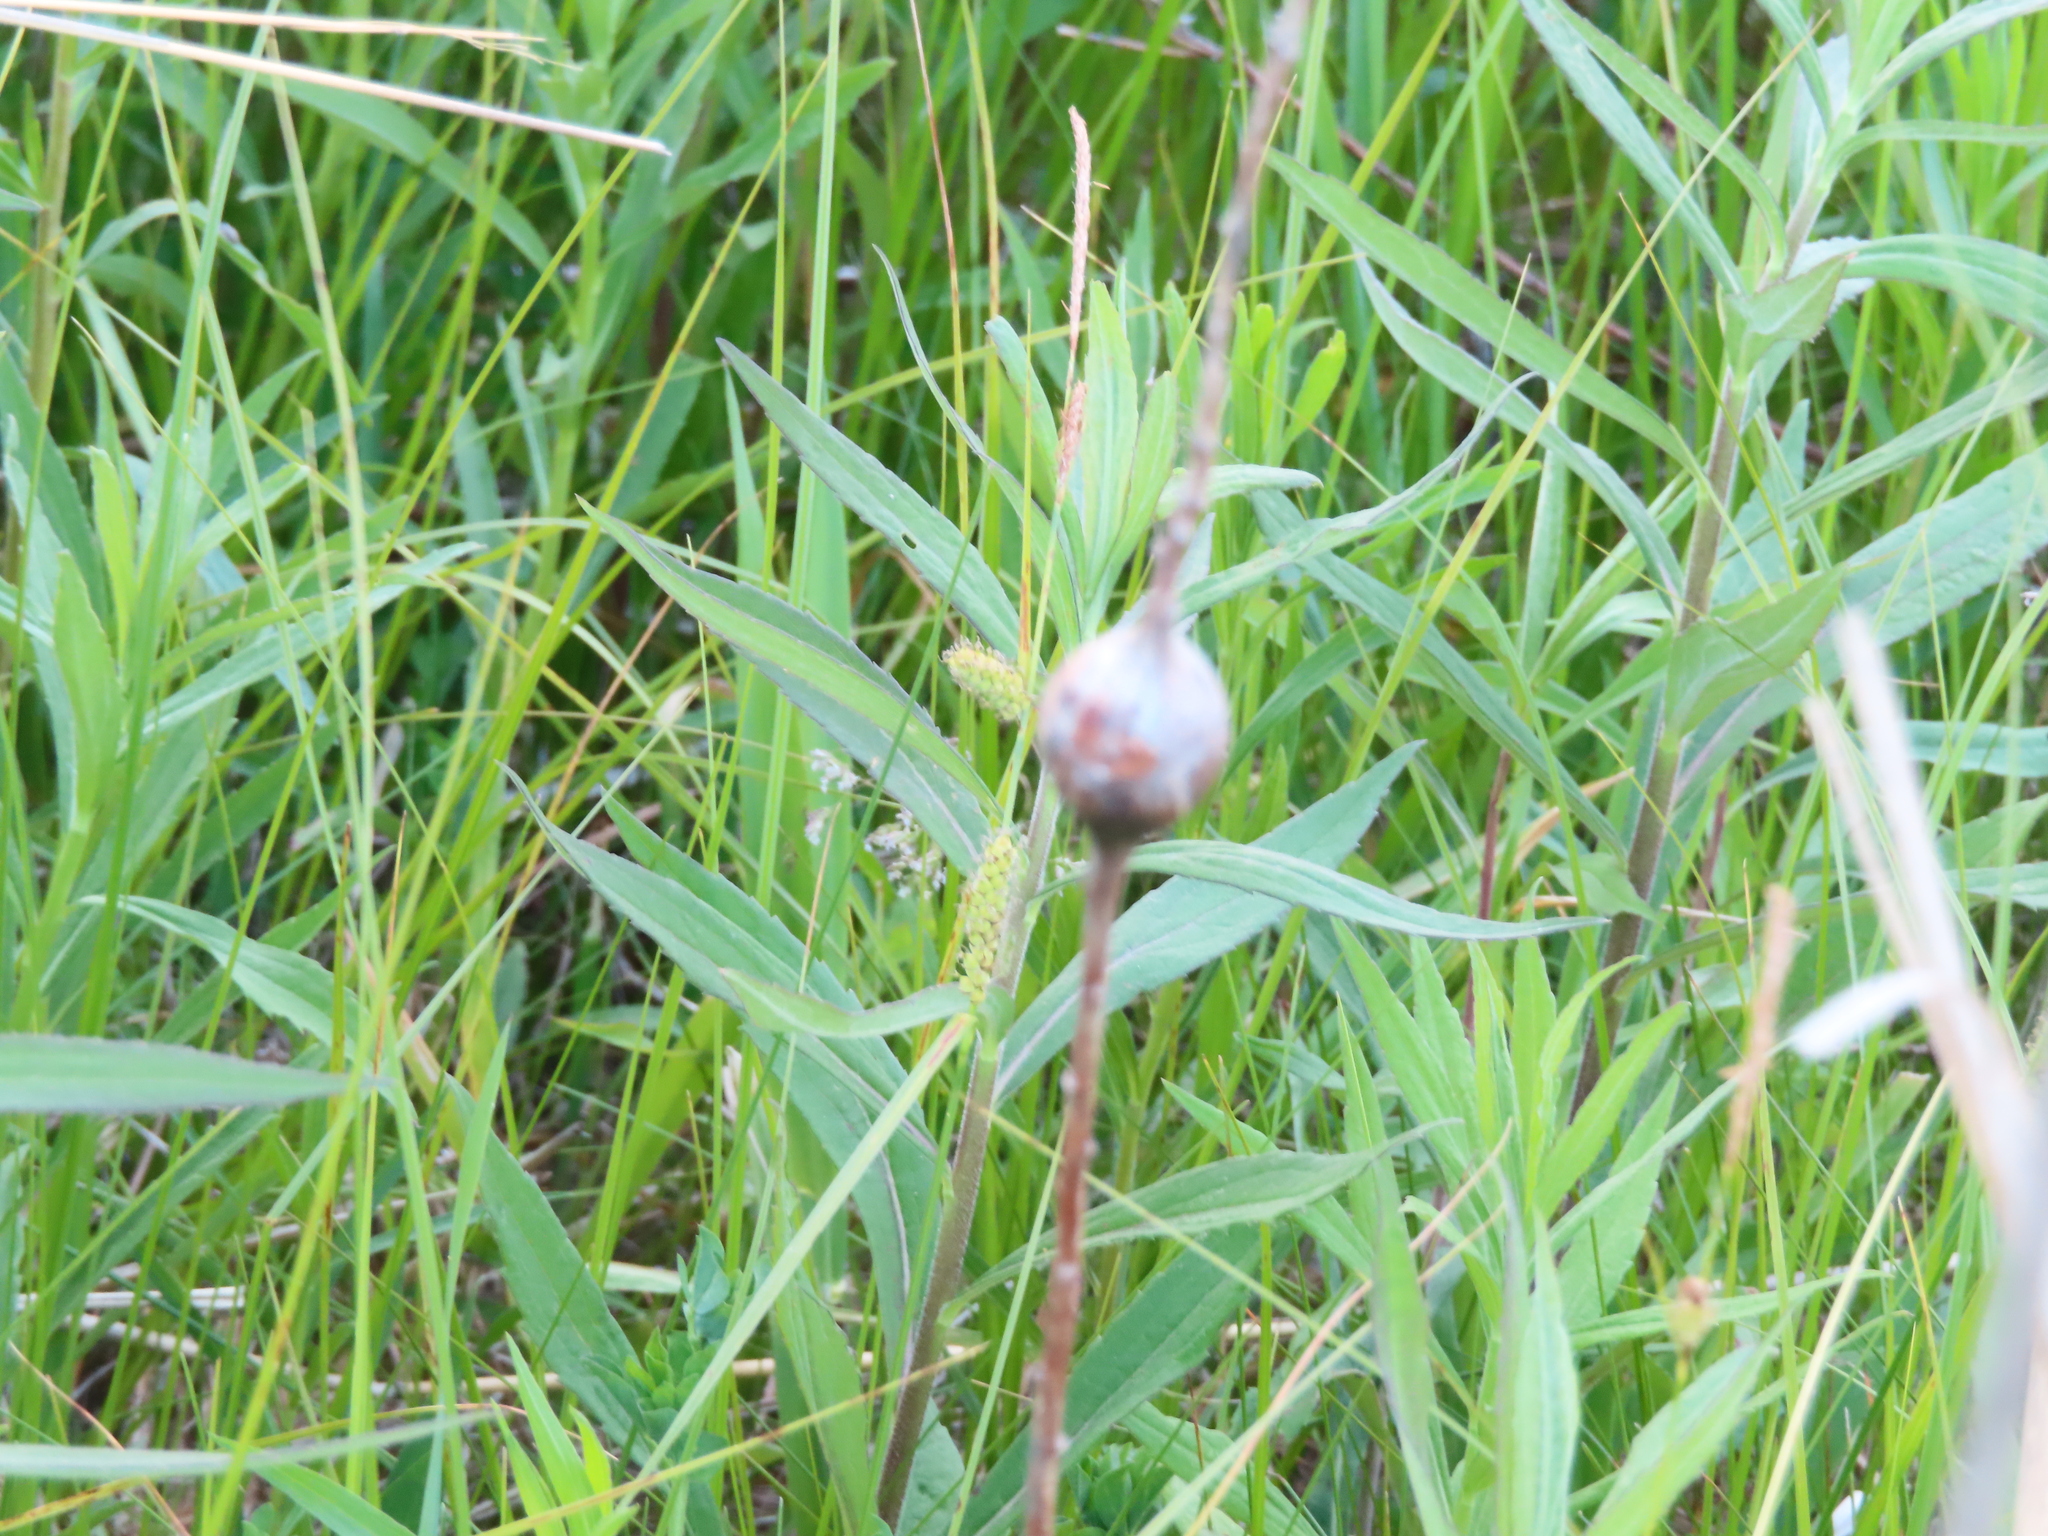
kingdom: Animalia
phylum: Arthropoda
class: Insecta
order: Diptera
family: Tephritidae
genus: Eurosta
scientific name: Eurosta solidaginis
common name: Goldenrod gall fly
